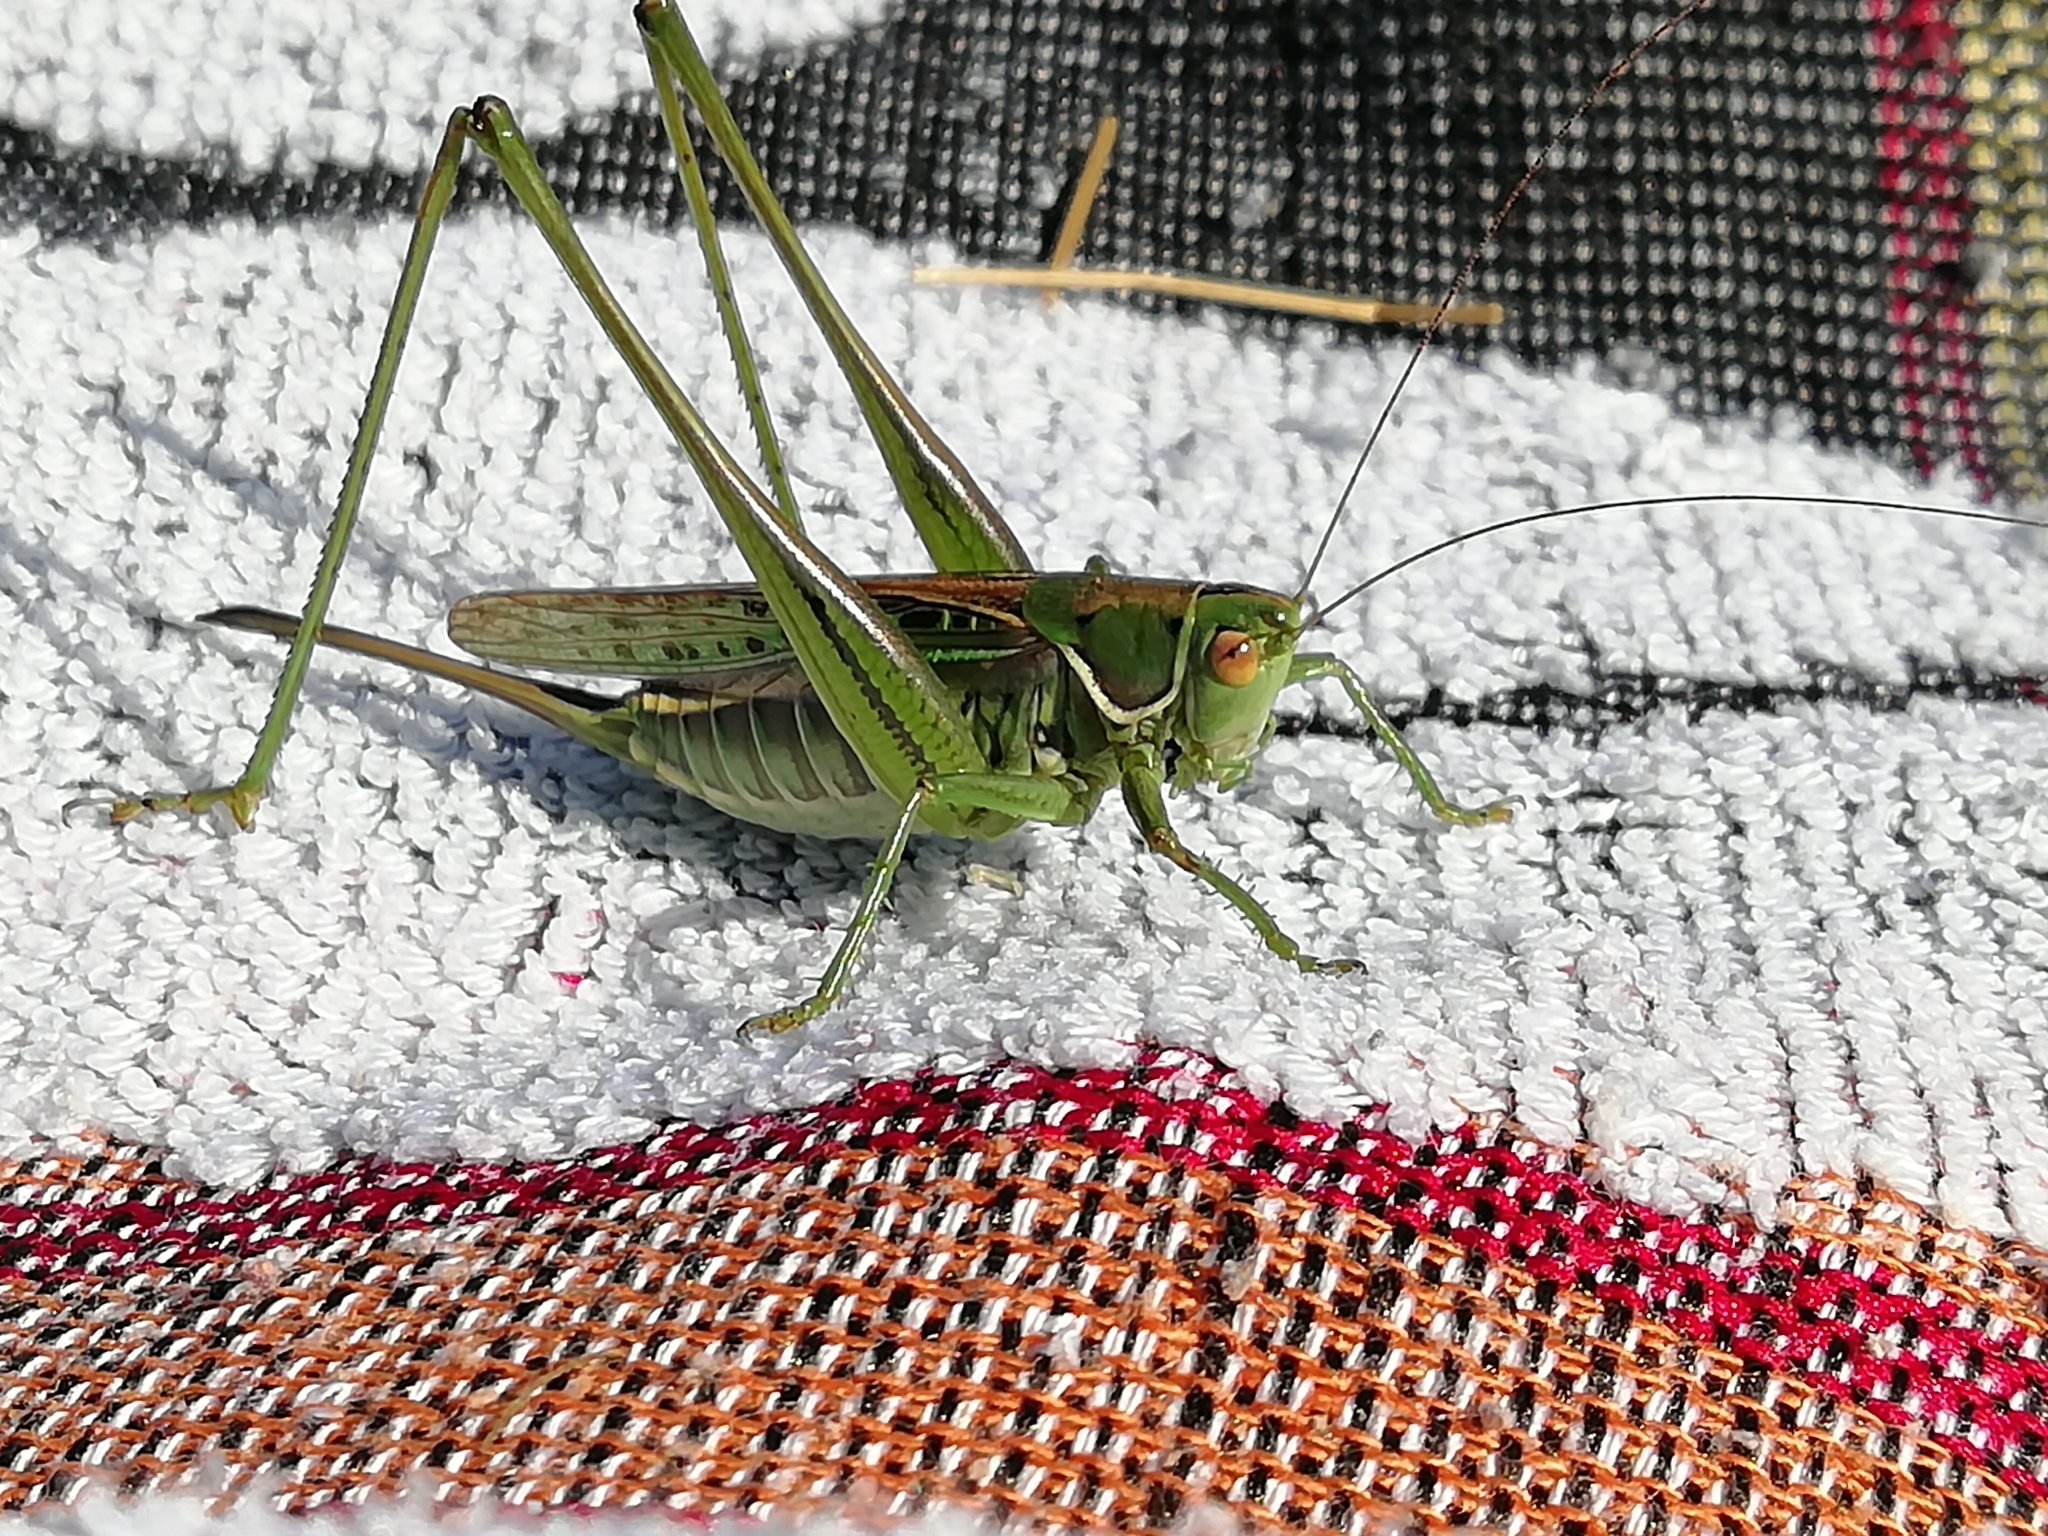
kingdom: Animalia
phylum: Arthropoda
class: Insecta
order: Orthoptera
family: Tettigoniidae
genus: Gampsocleis
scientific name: Gampsocleis glabra
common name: Heath bushcricket
